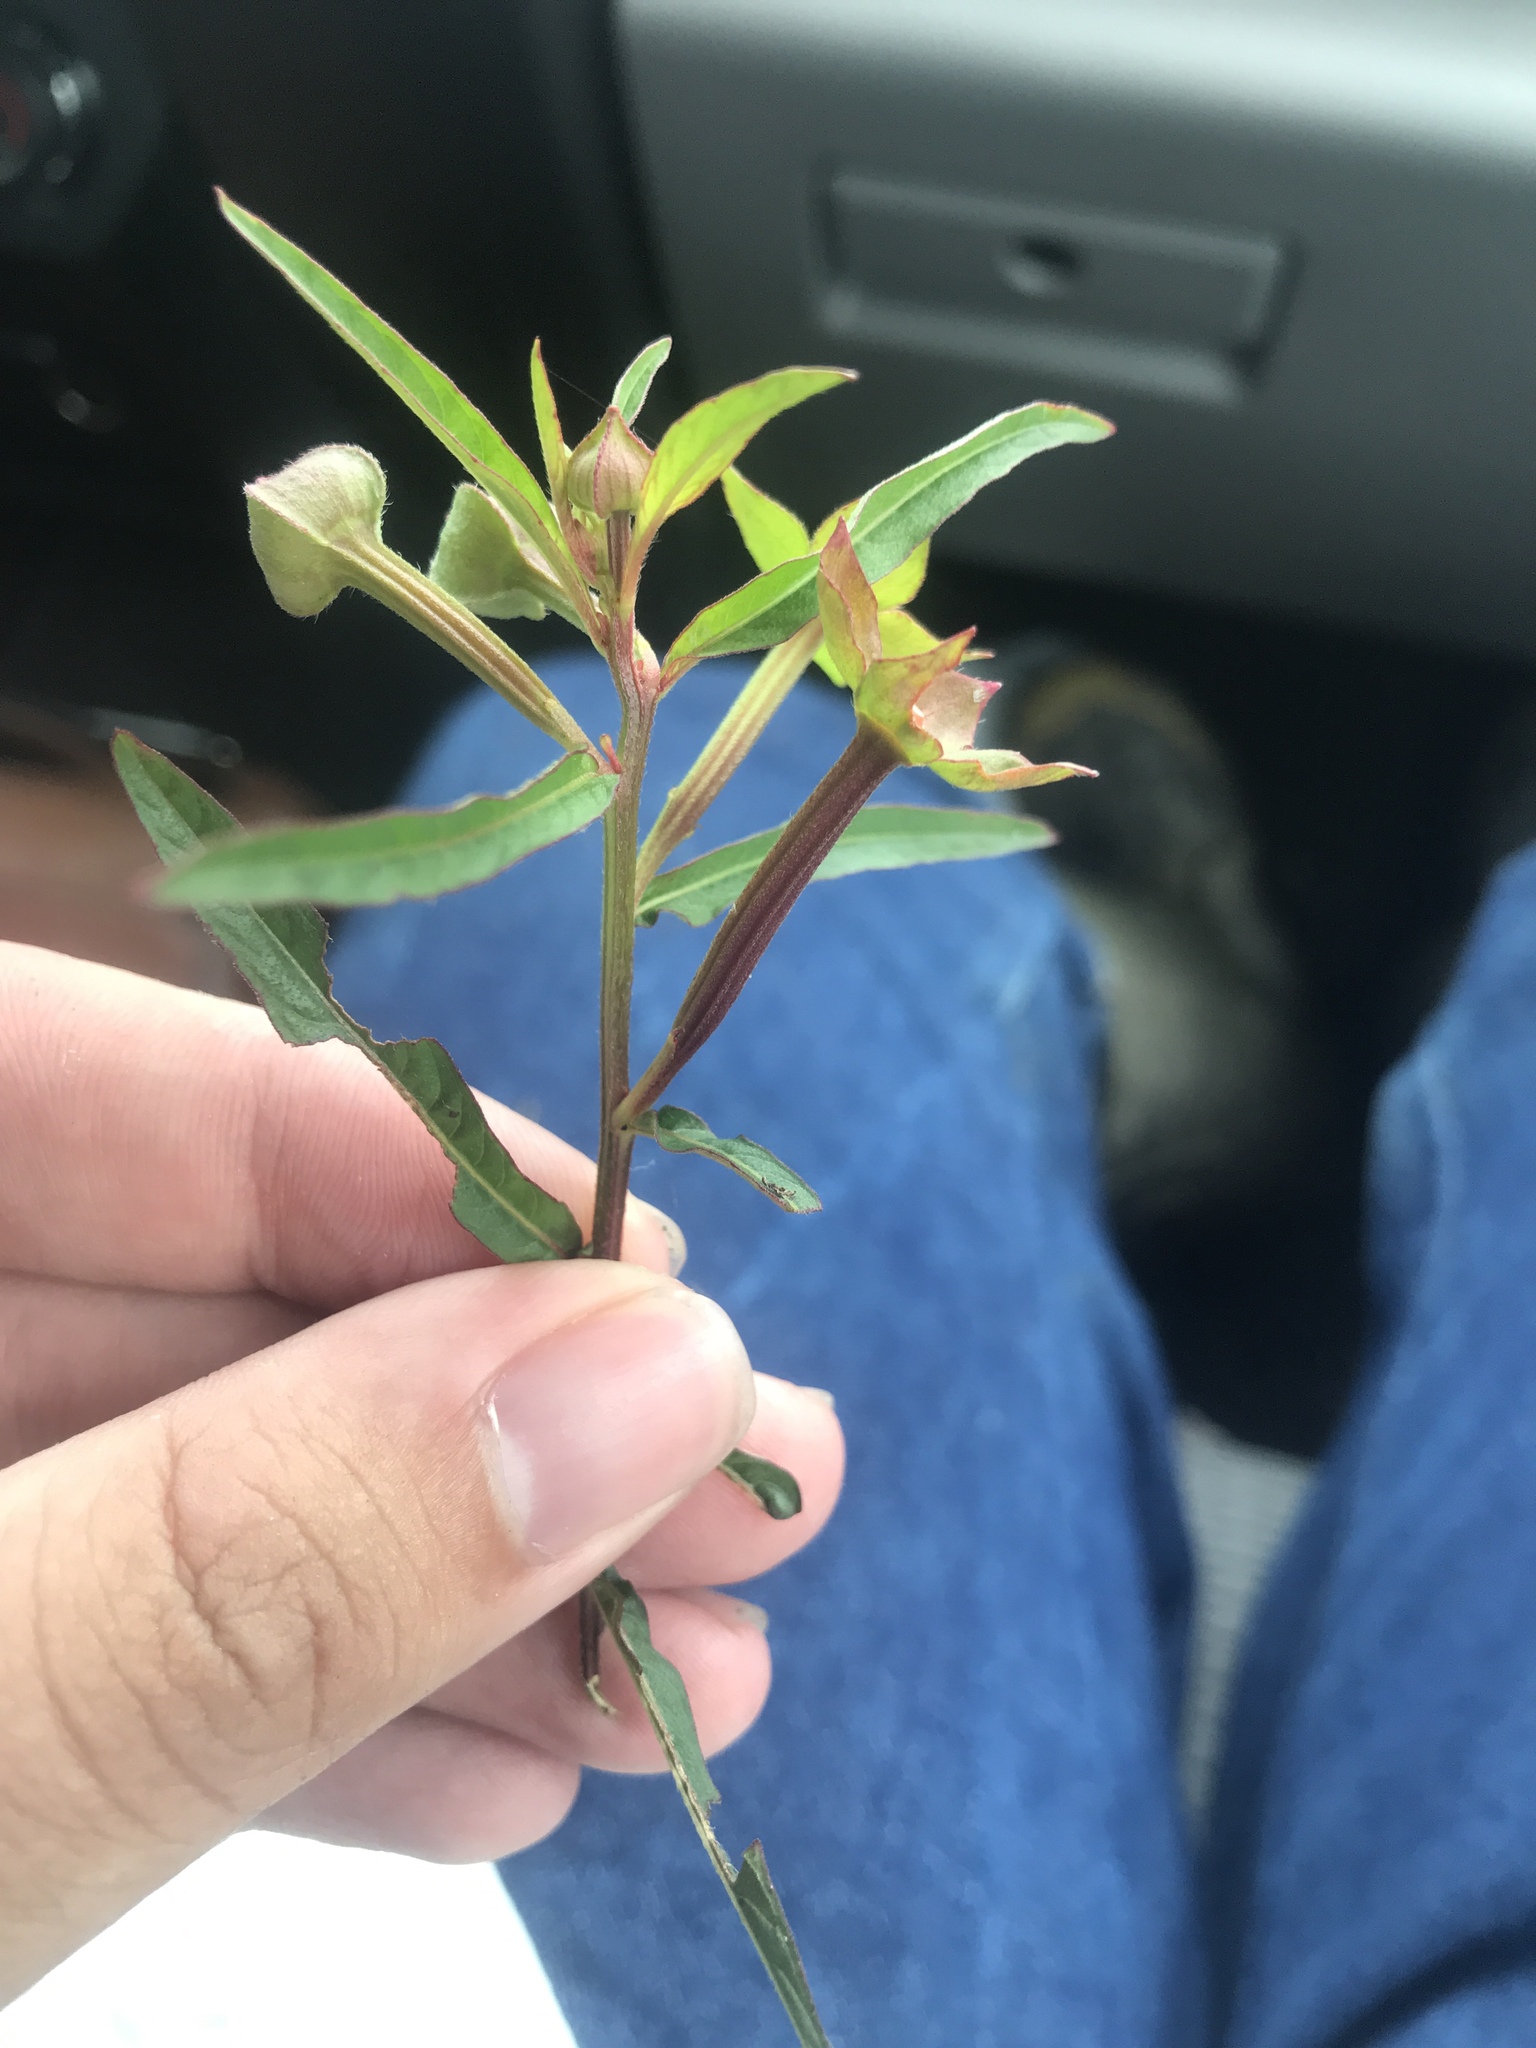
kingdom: Plantae
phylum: Tracheophyta
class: Magnoliopsida
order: Myrtales
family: Onagraceae
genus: Ludwigia
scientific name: Ludwigia octovalvis
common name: Water-primrose
